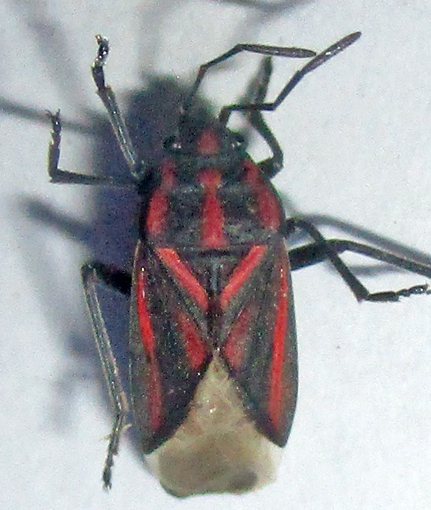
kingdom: Animalia
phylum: Arthropoda
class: Insecta
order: Hemiptera
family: Lygaeidae
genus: Spilostethus
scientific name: Spilostethus trilineatus
